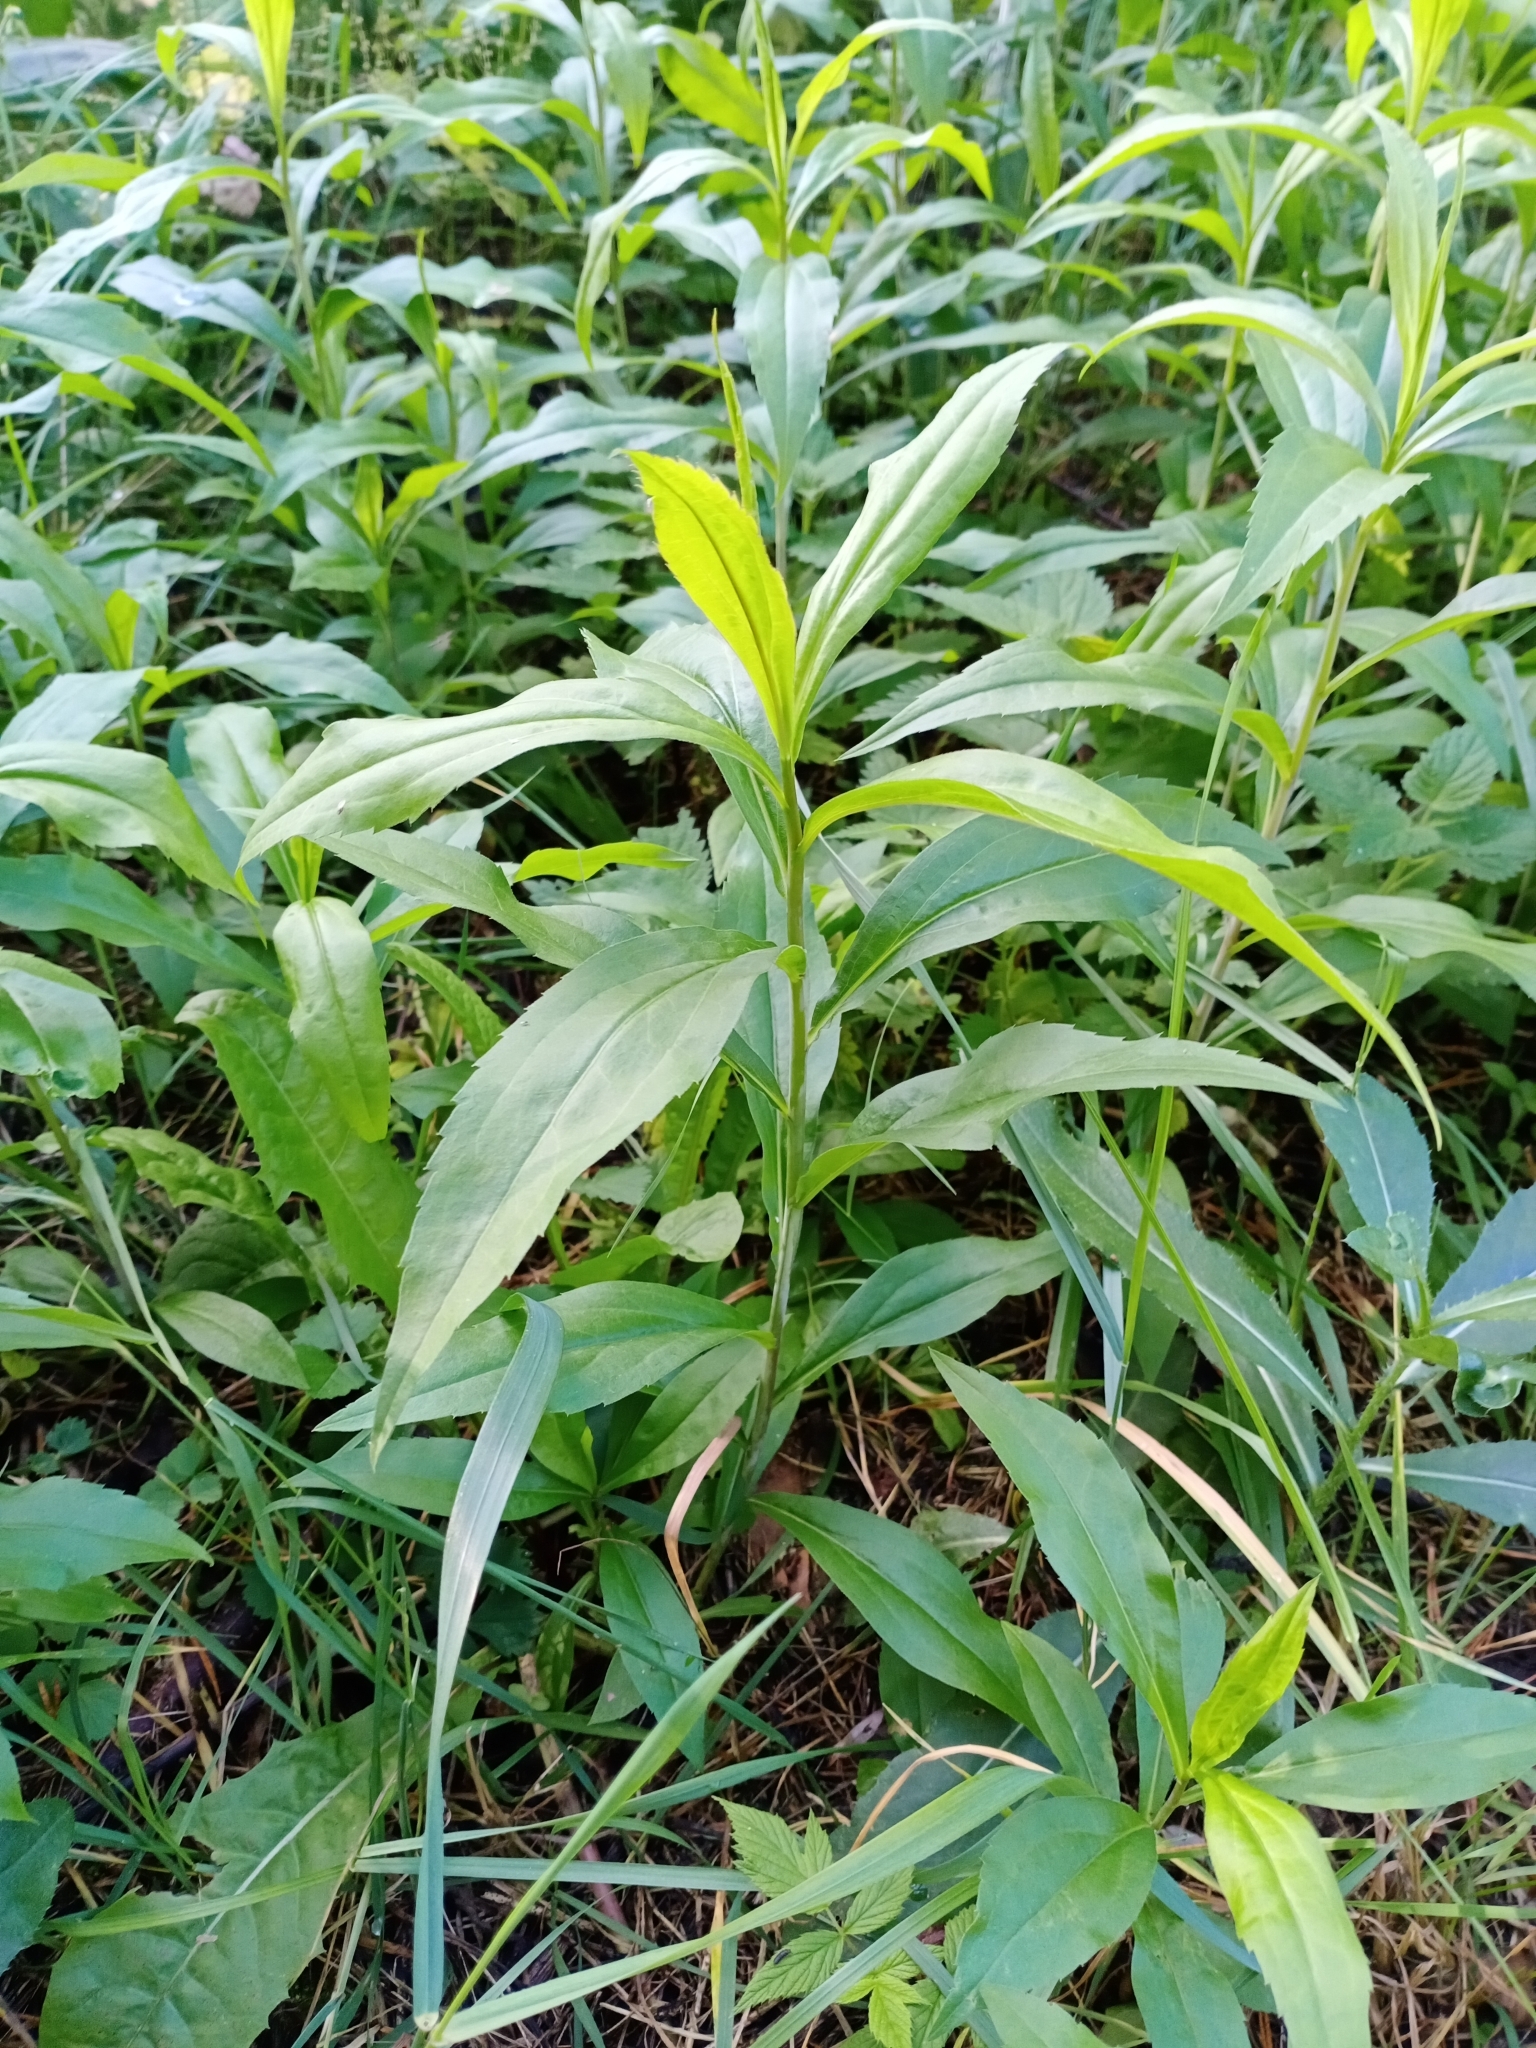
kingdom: Plantae
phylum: Tracheophyta
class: Magnoliopsida
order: Asterales
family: Asteraceae
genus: Solidago
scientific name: Solidago gigantea
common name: Giant goldenrod
